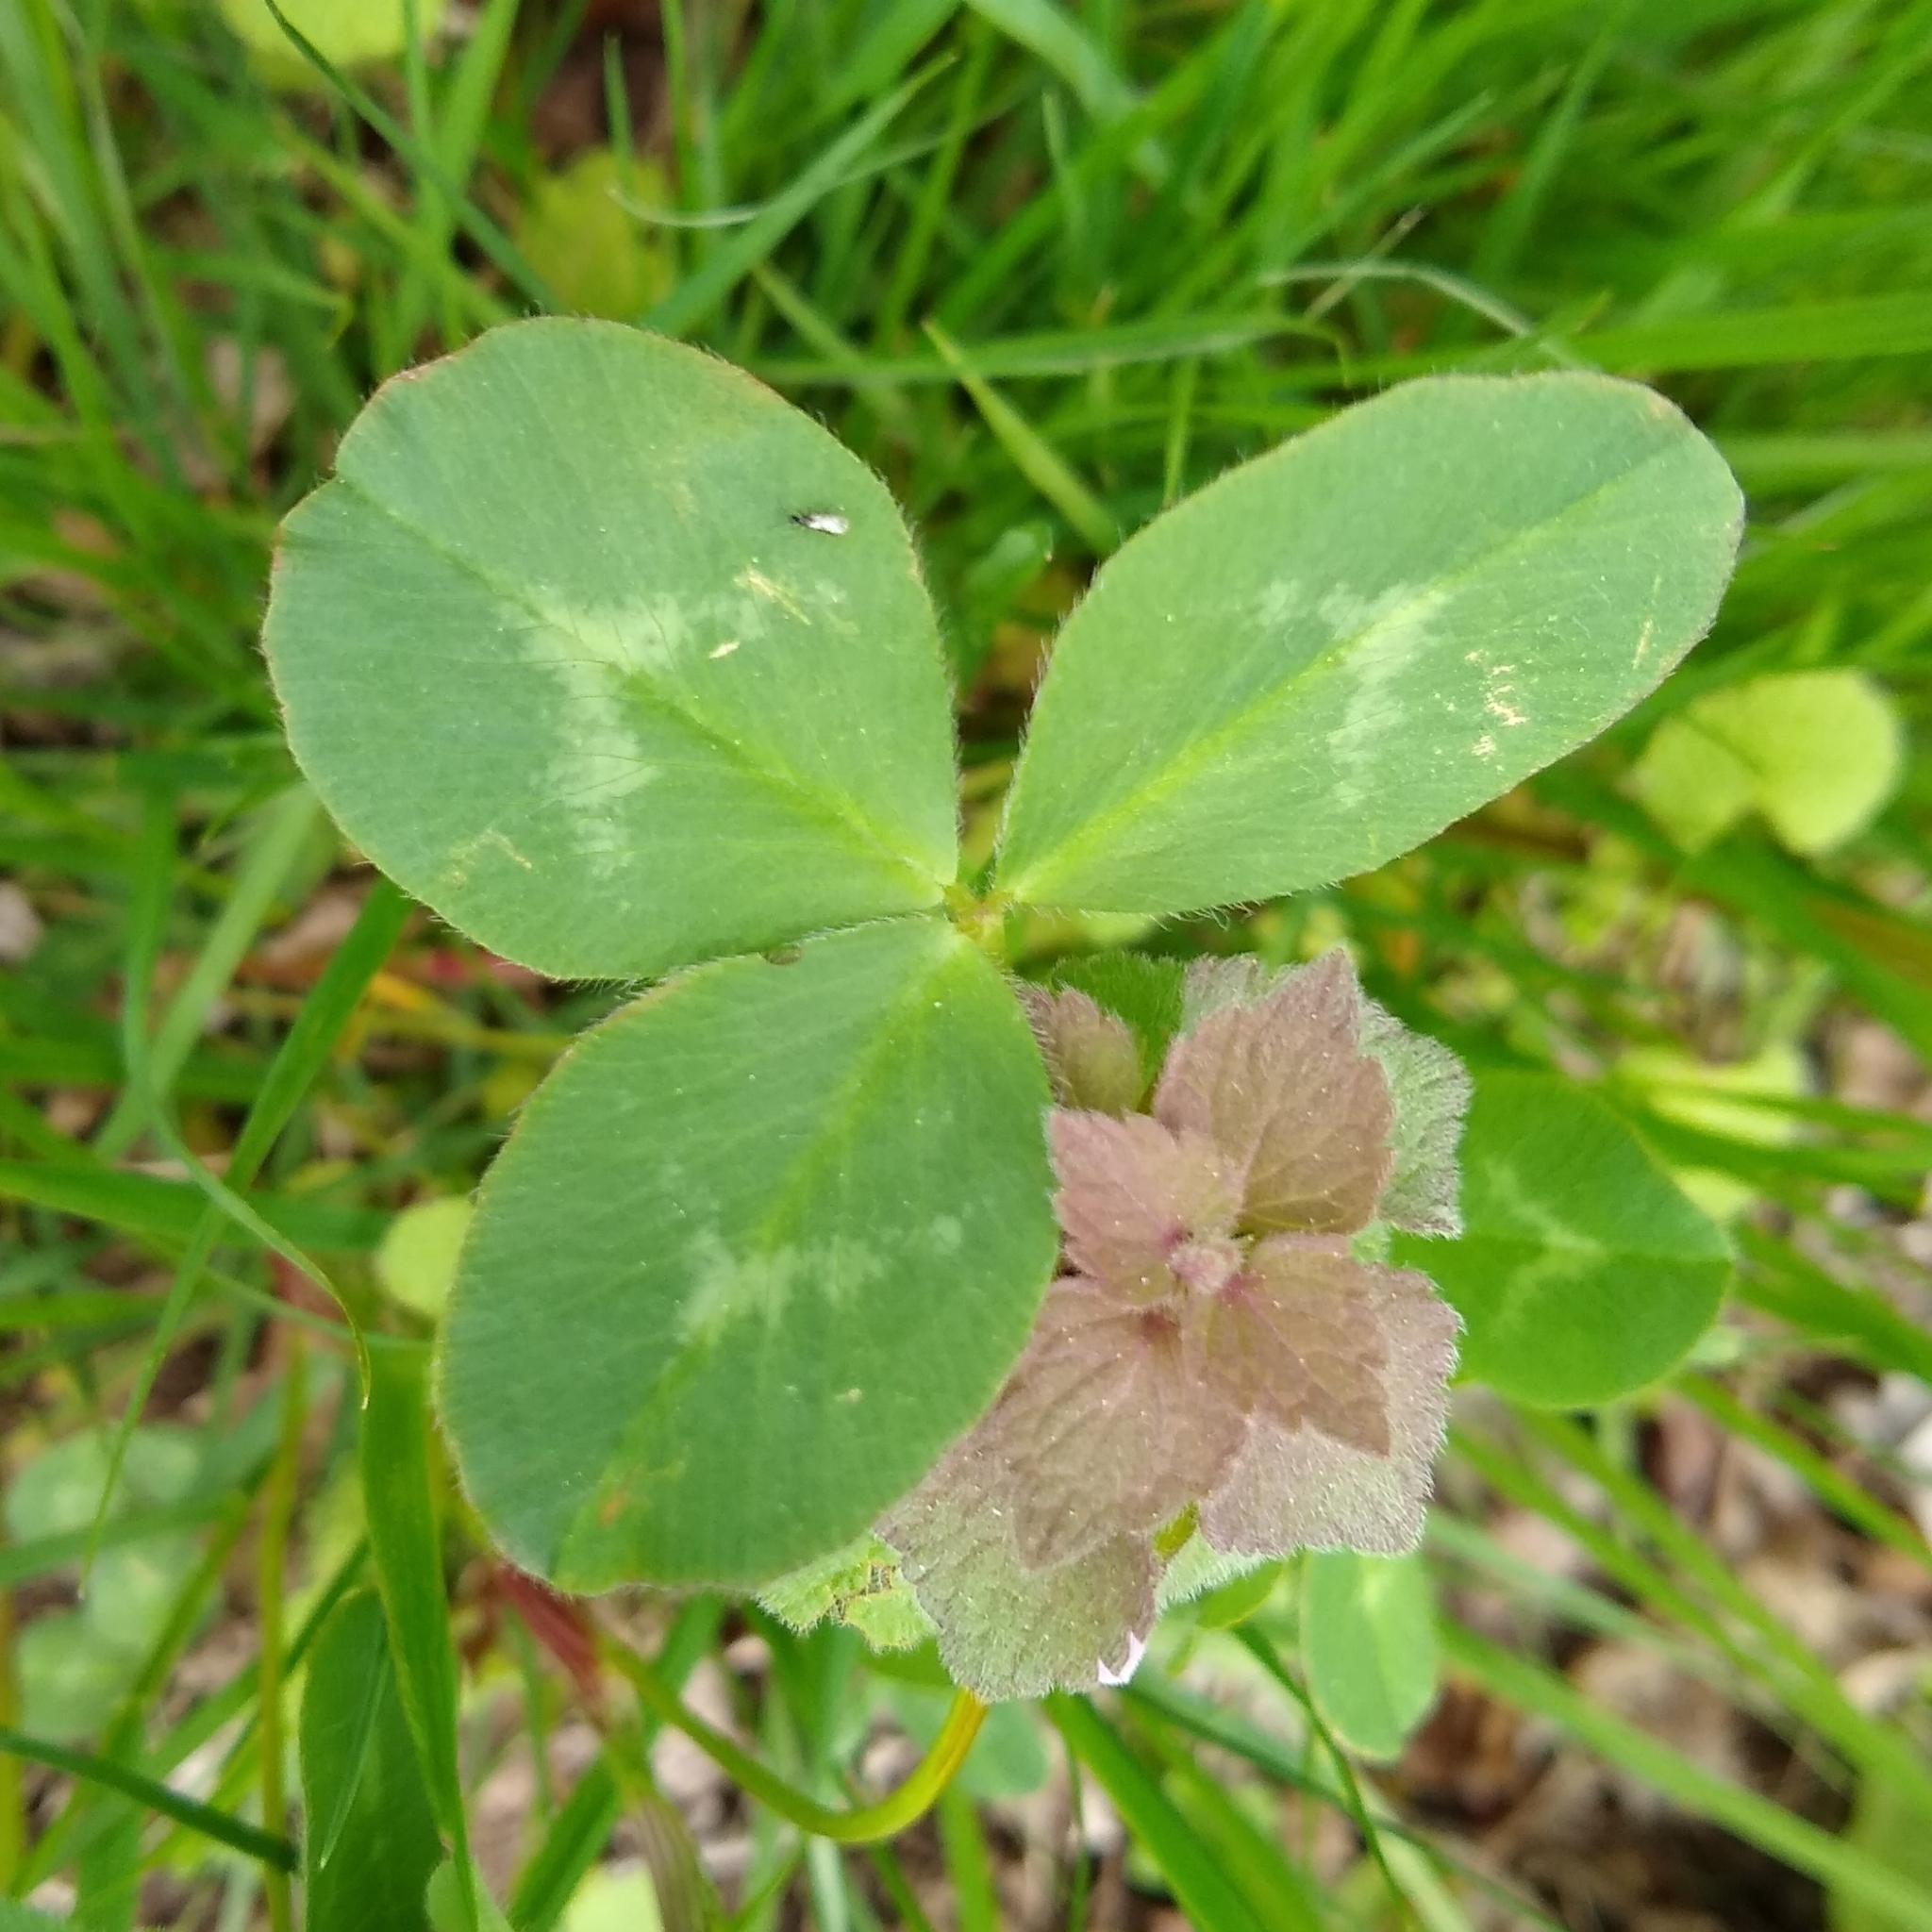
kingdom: Plantae
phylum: Tracheophyta
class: Magnoliopsida
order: Fabales
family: Fabaceae
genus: Trifolium
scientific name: Trifolium pratense
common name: Red clover
